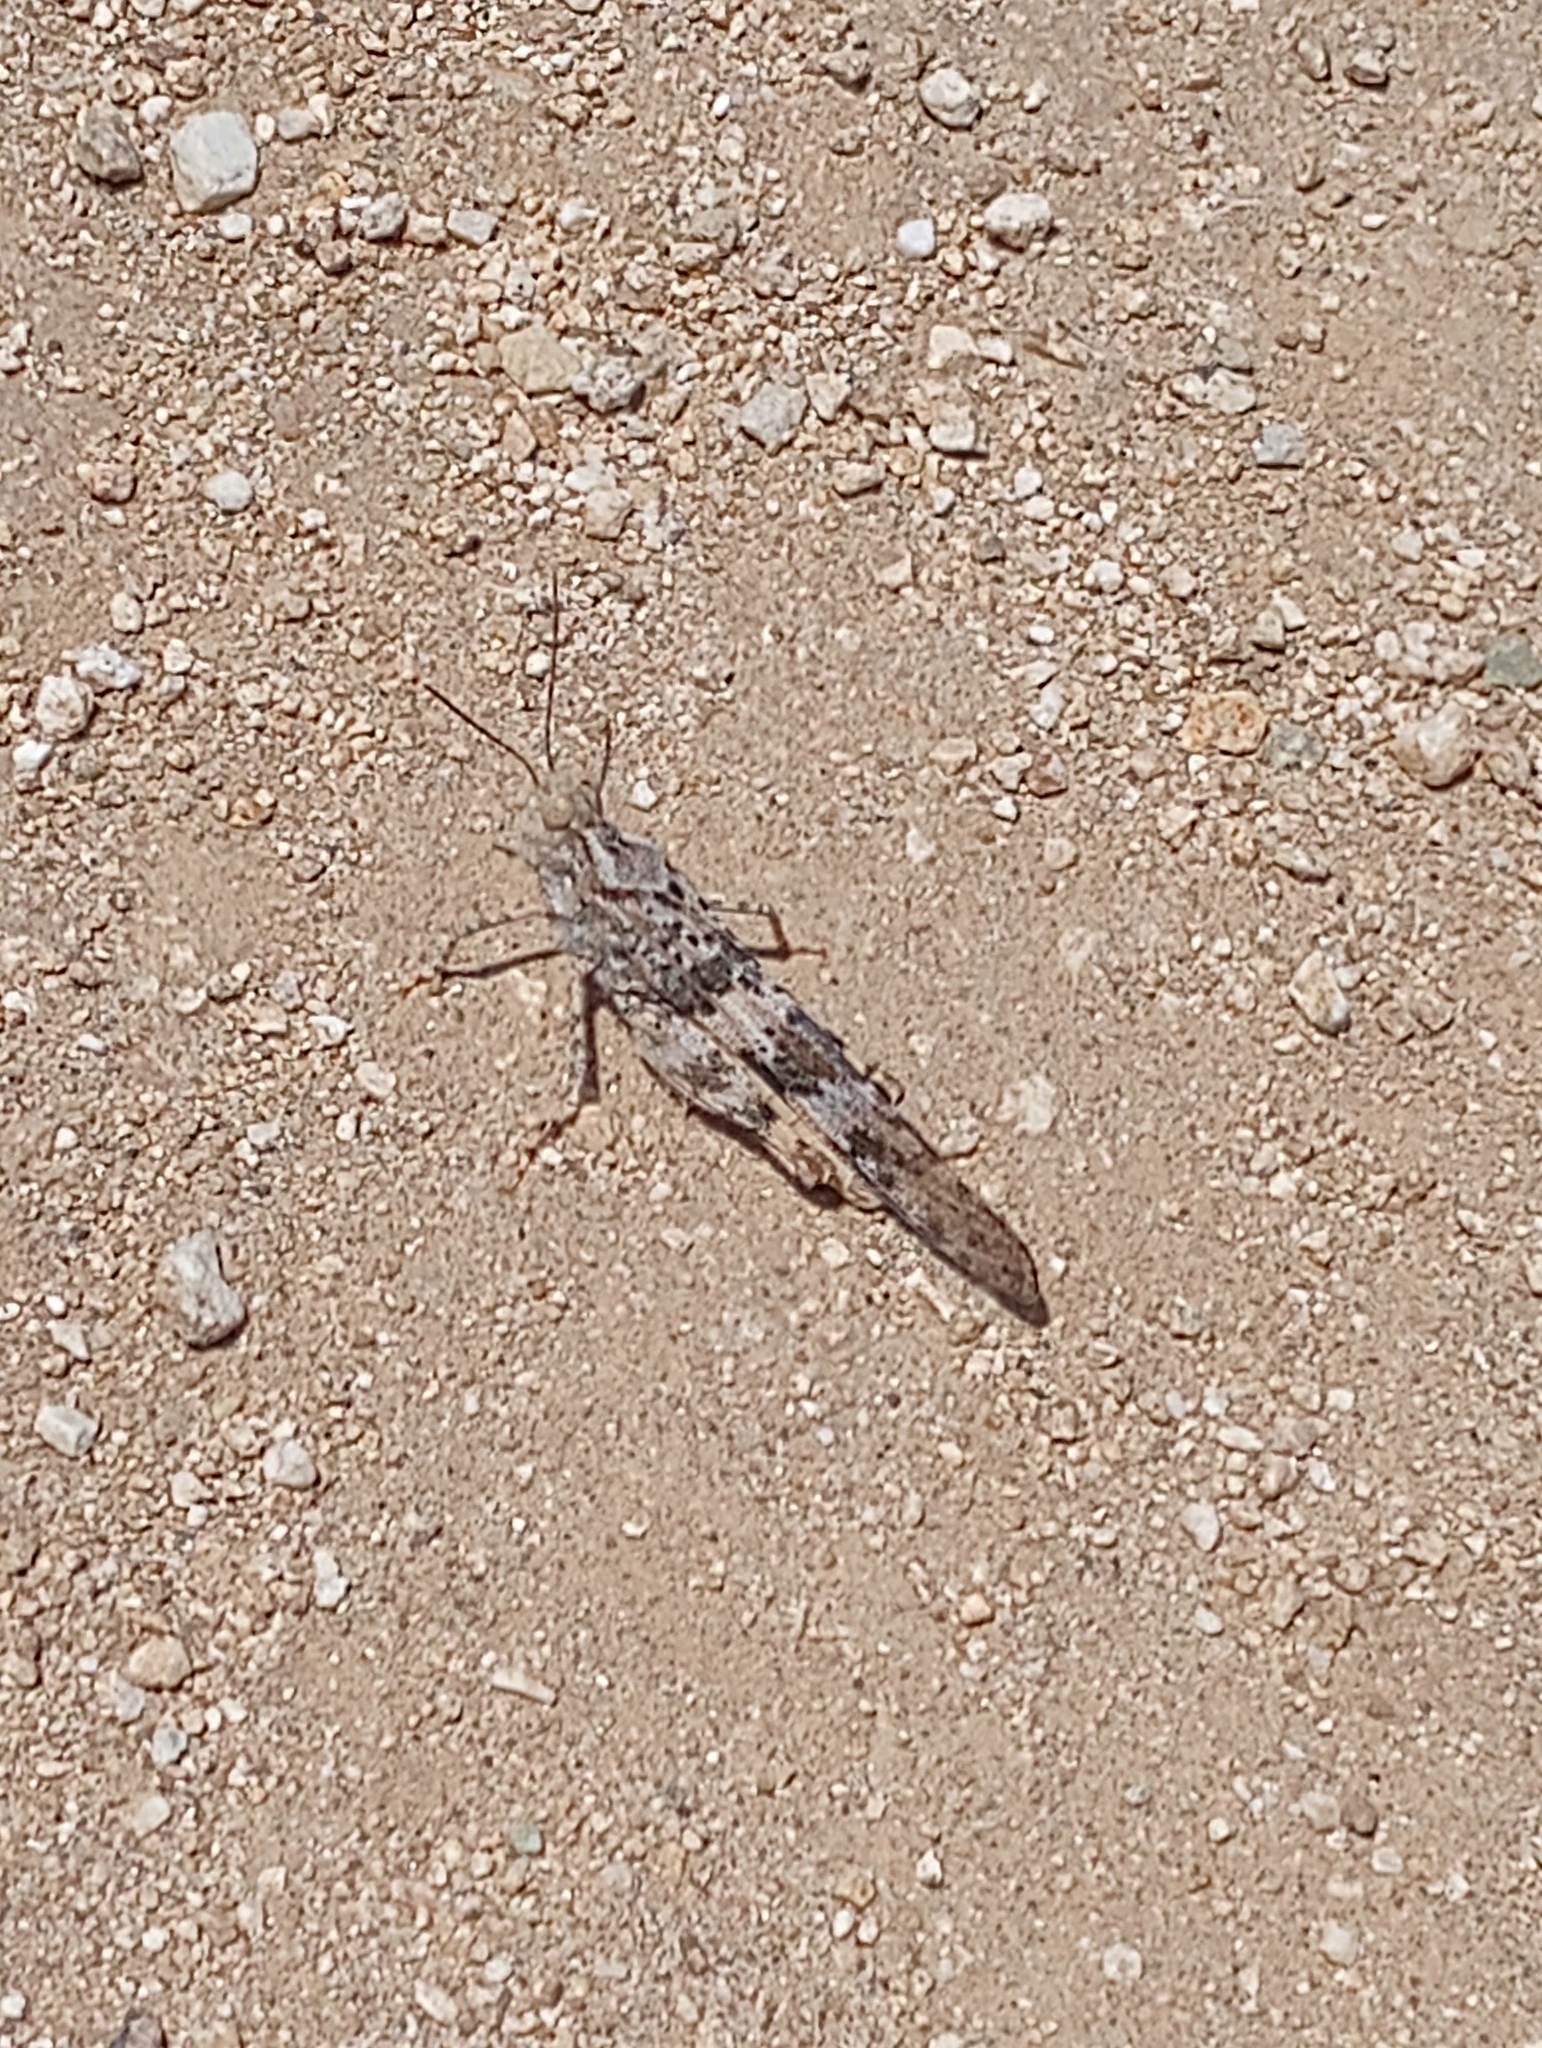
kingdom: Animalia
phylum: Arthropoda
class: Insecta
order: Orthoptera
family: Acrididae
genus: Trimerotropis
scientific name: Trimerotropis pallidipennis
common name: Pallid-winged grasshopper
